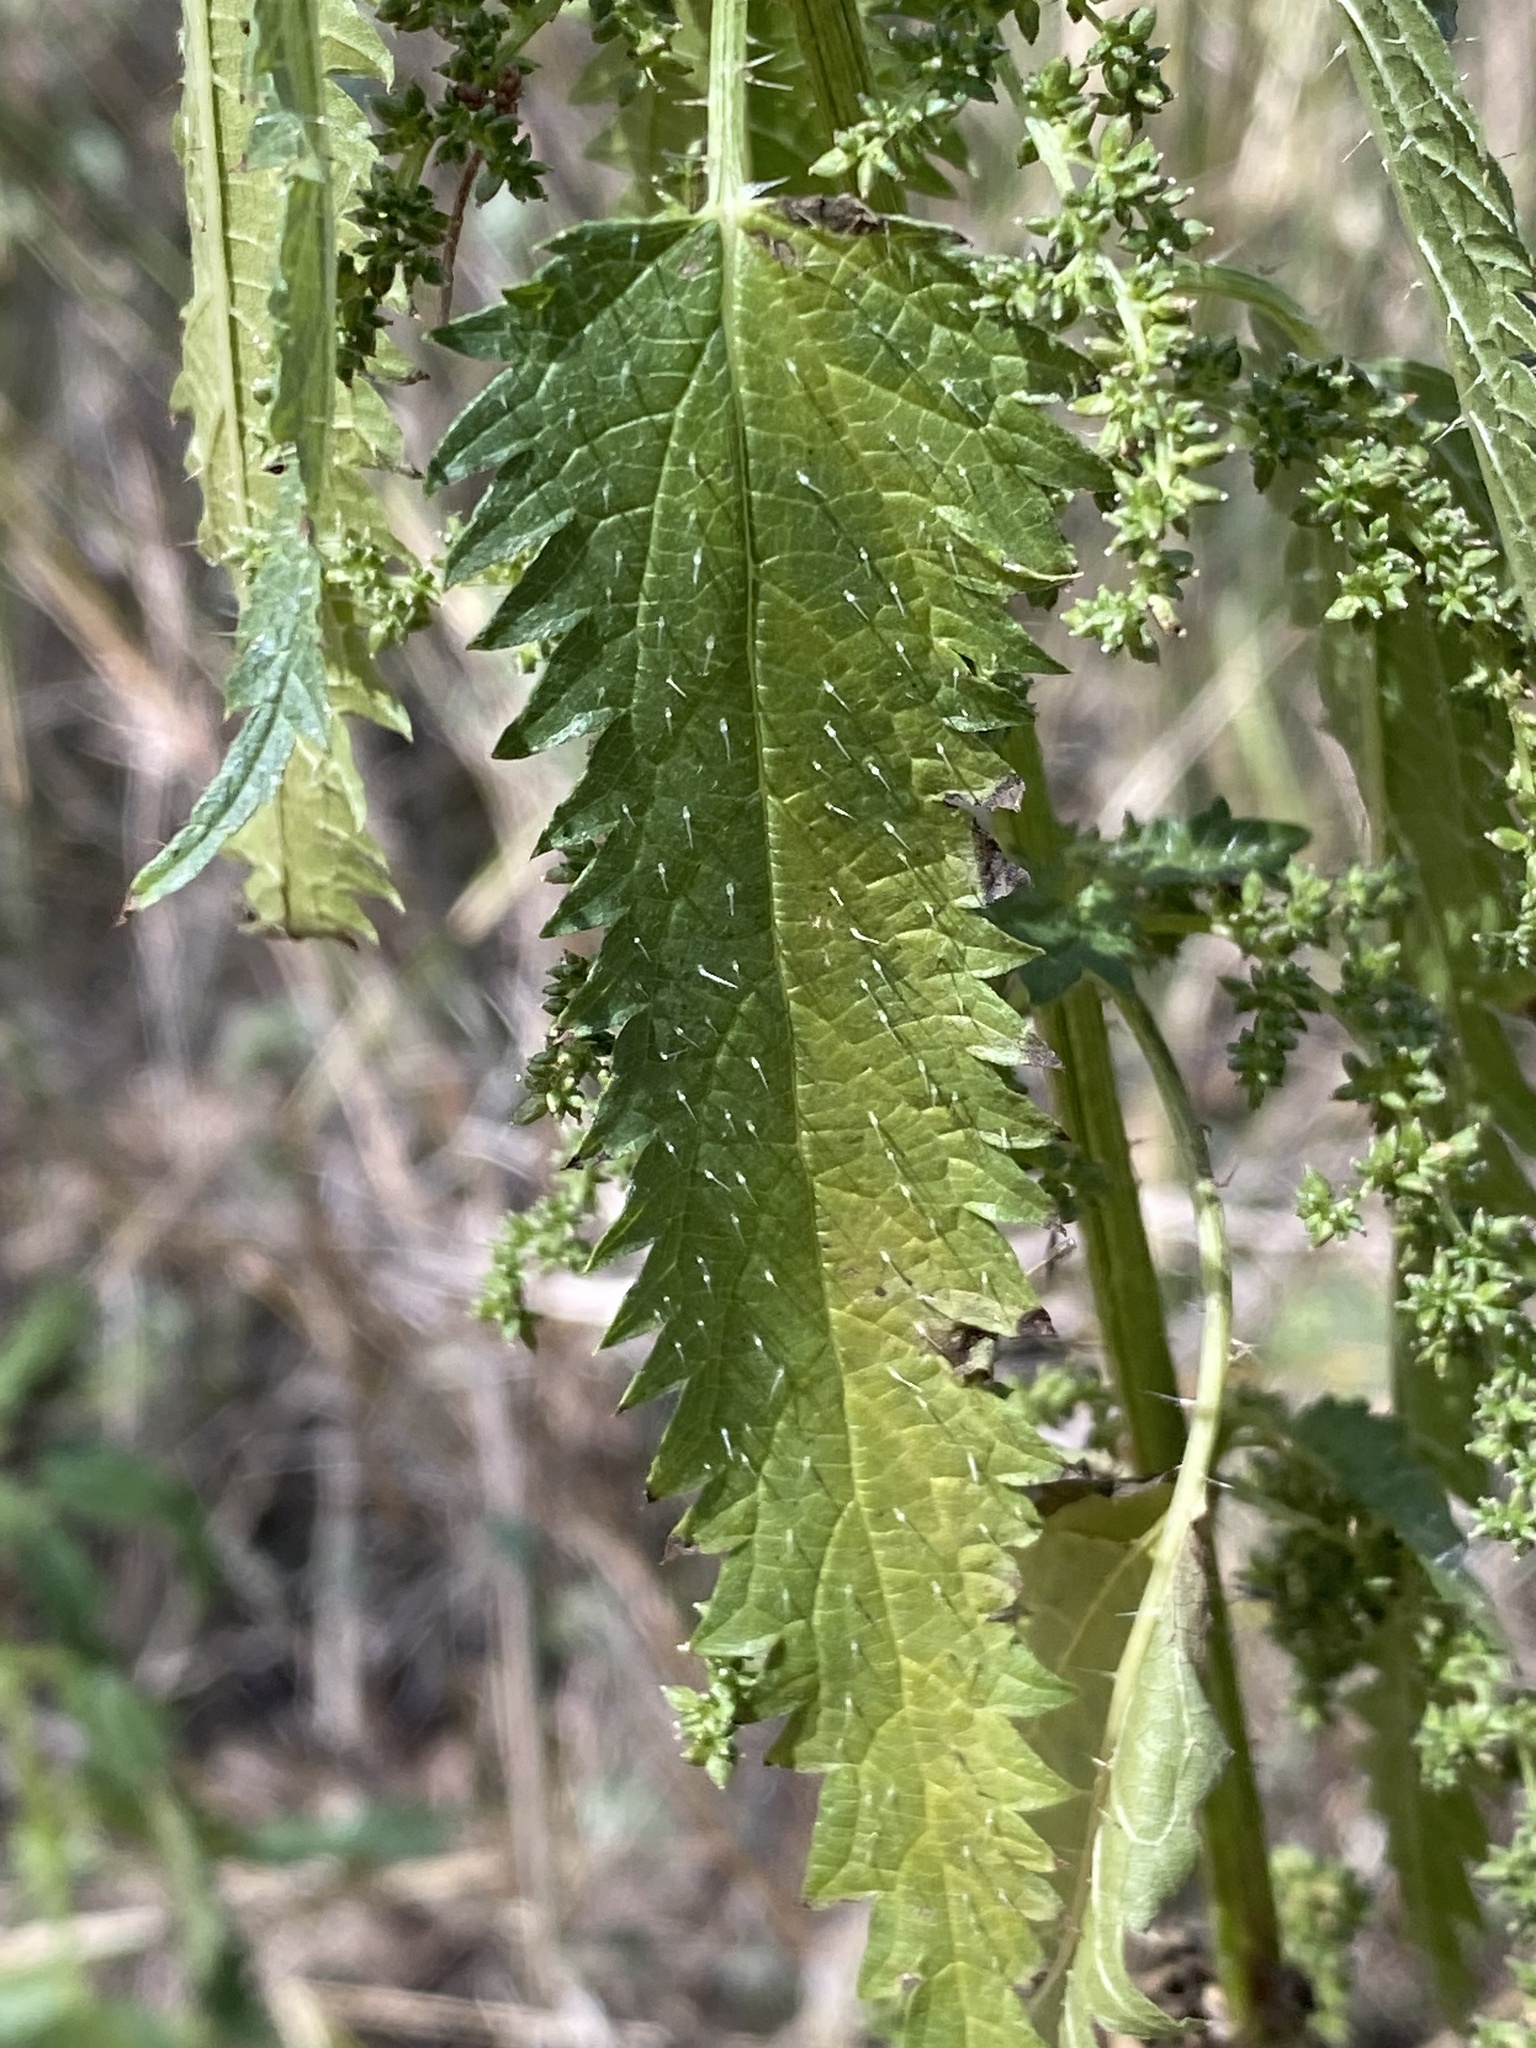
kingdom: Plantae
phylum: Tracheophyta
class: Magnoliopsida
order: Rosales
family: Urticaceae
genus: Urtica
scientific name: Urtica incisa
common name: Scrub nettle
